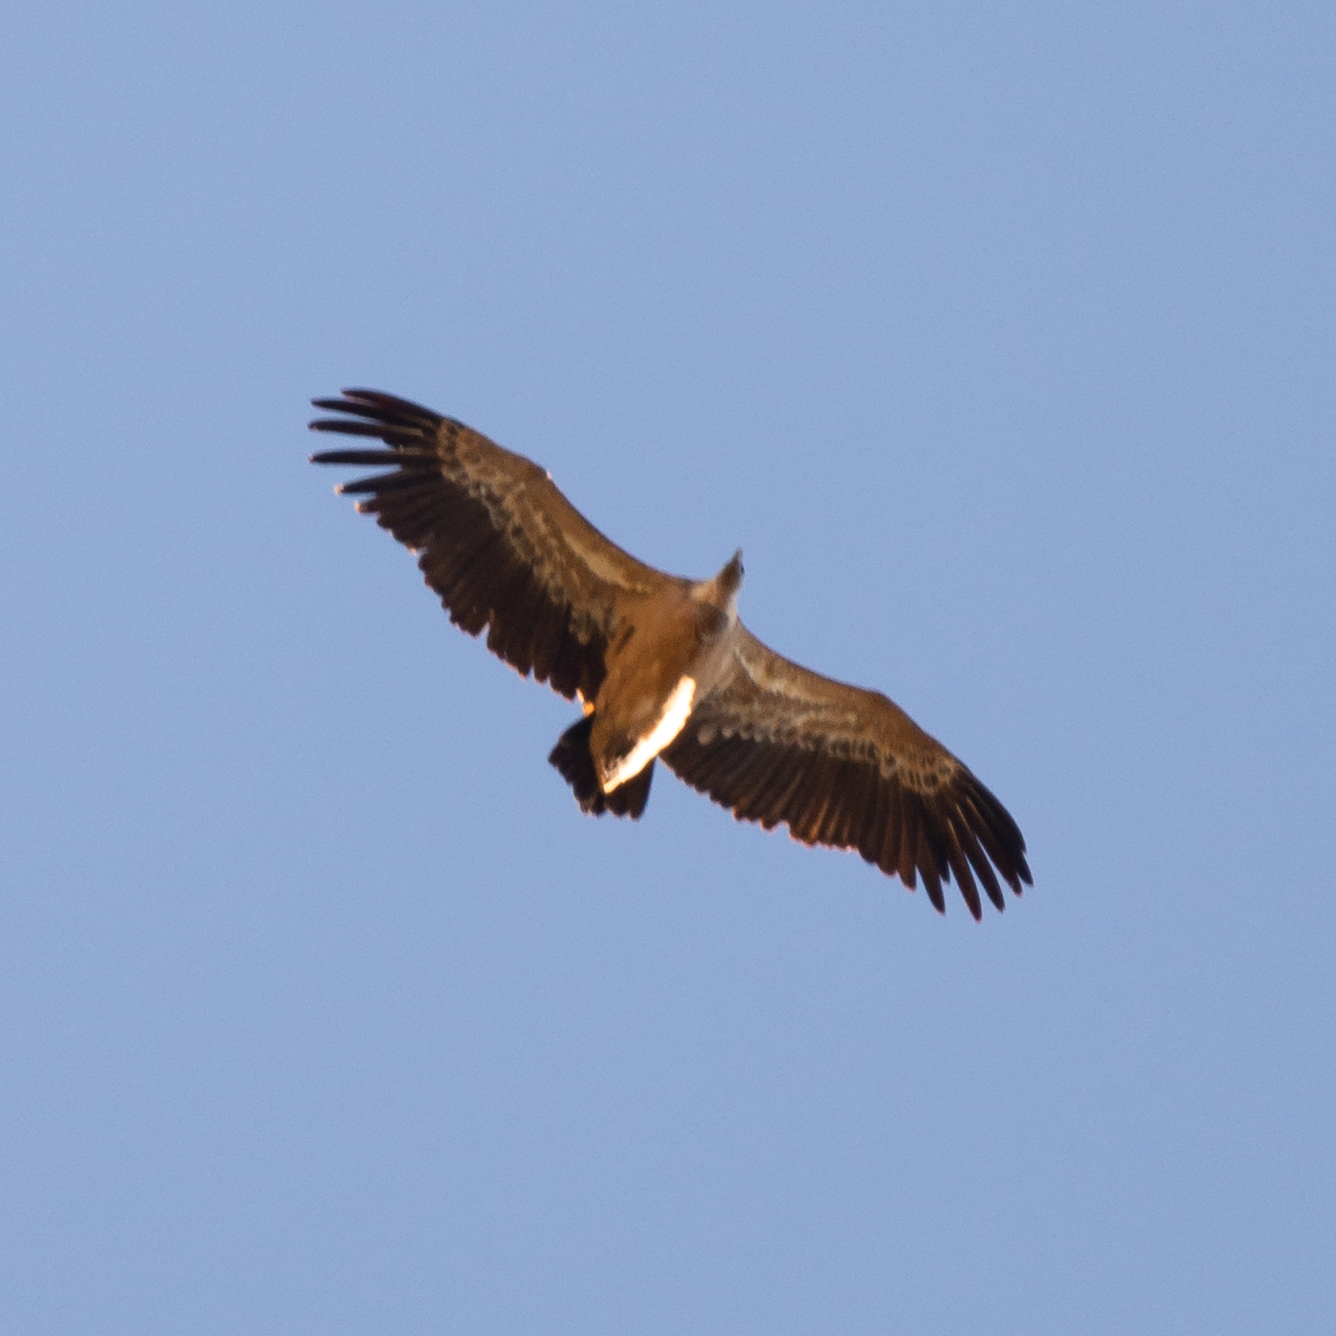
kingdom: Animalia
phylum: Chordata
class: Aves
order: Accipitriformes
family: Accipitridae
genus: Gyps
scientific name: Gyps fulvus
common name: Griffon vulture
